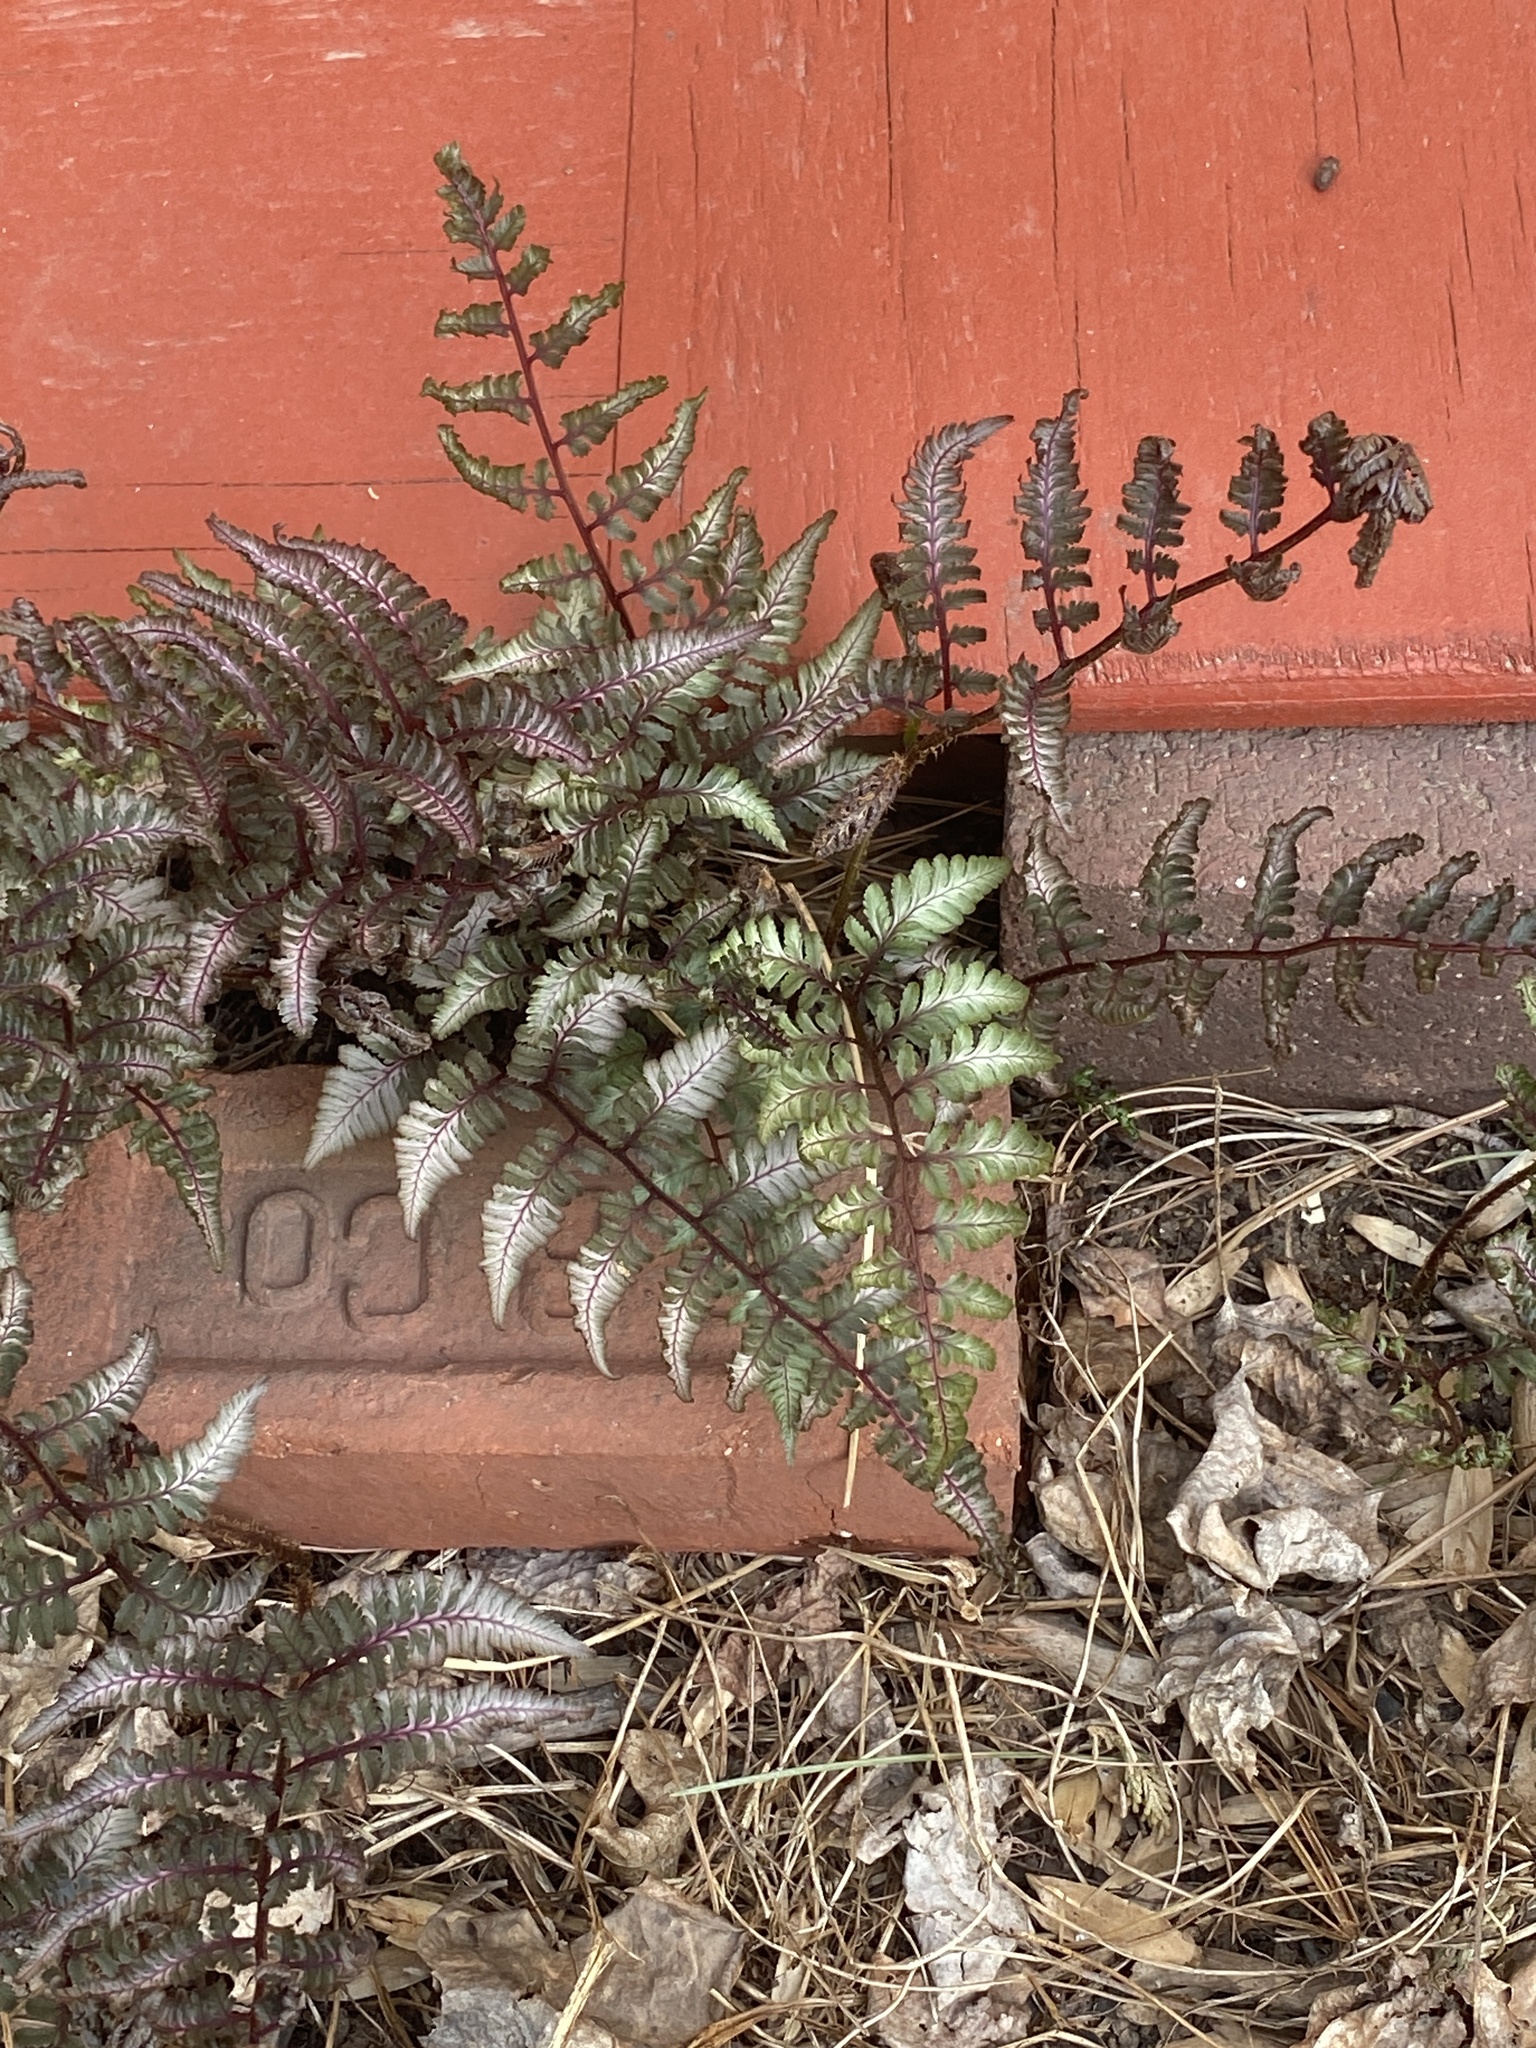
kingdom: Plantae
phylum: Tracheophyta
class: Polypodiopsida
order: Polypodiales
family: Athyriaceae
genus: Anisocampium
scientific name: Anisocampium niponicum
